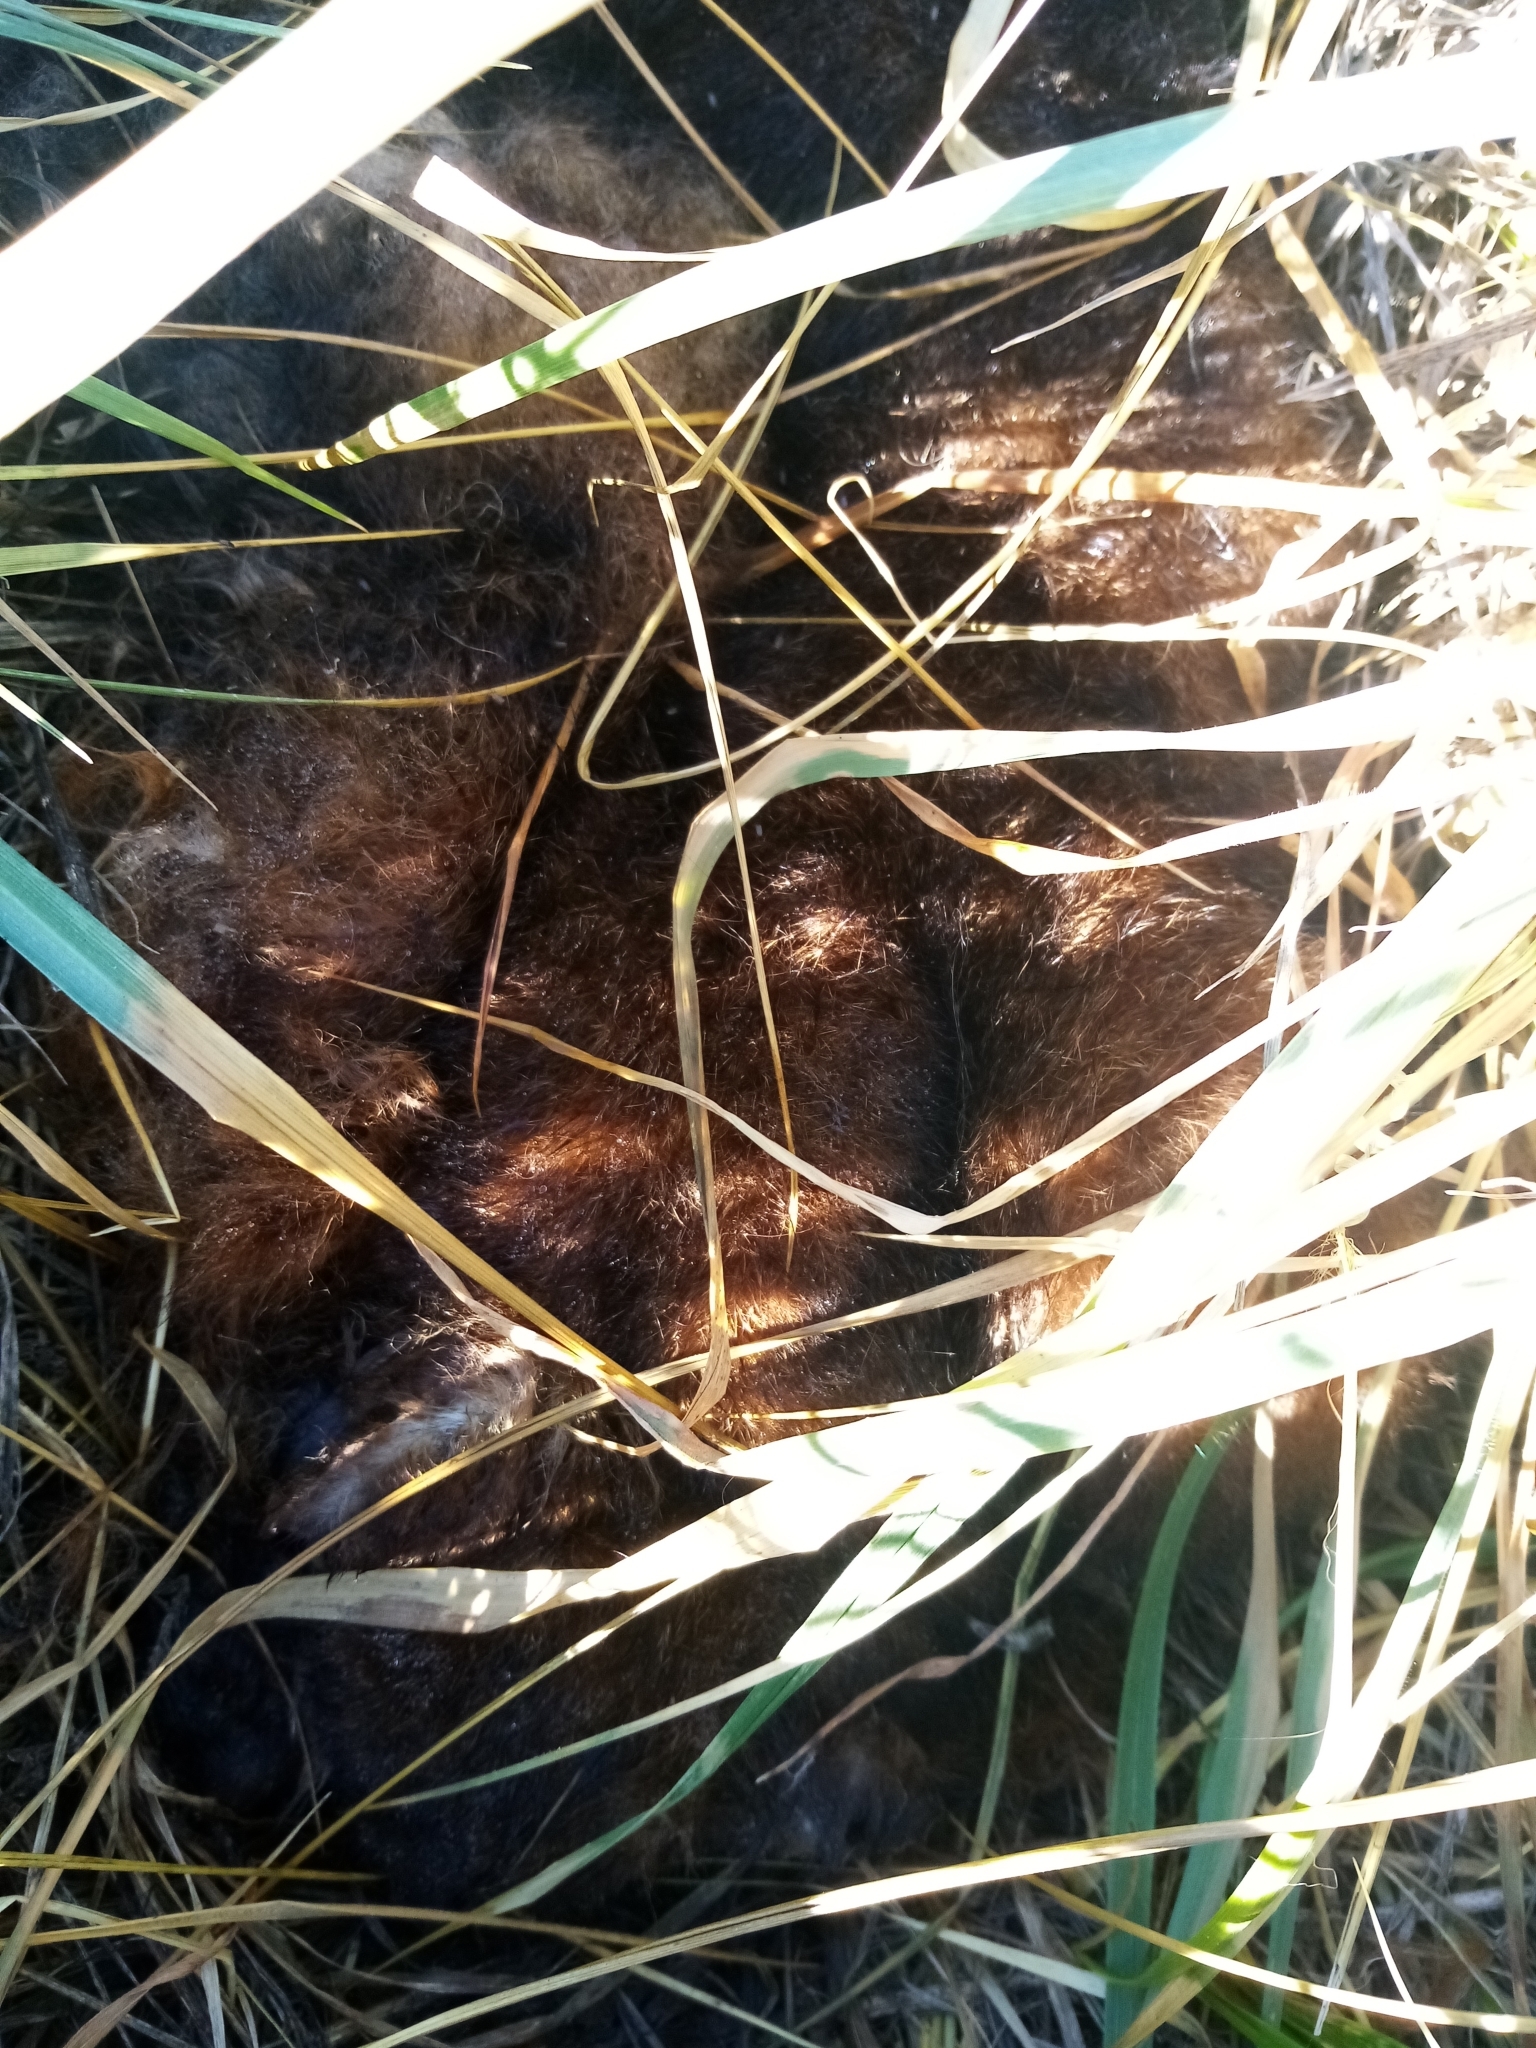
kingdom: Animalia
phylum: Chordata
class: Mammalia
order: Diprotodontia
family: Phalangeridae
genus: Trichosurus
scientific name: Trichosurus vulpecula
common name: Common brushtail
